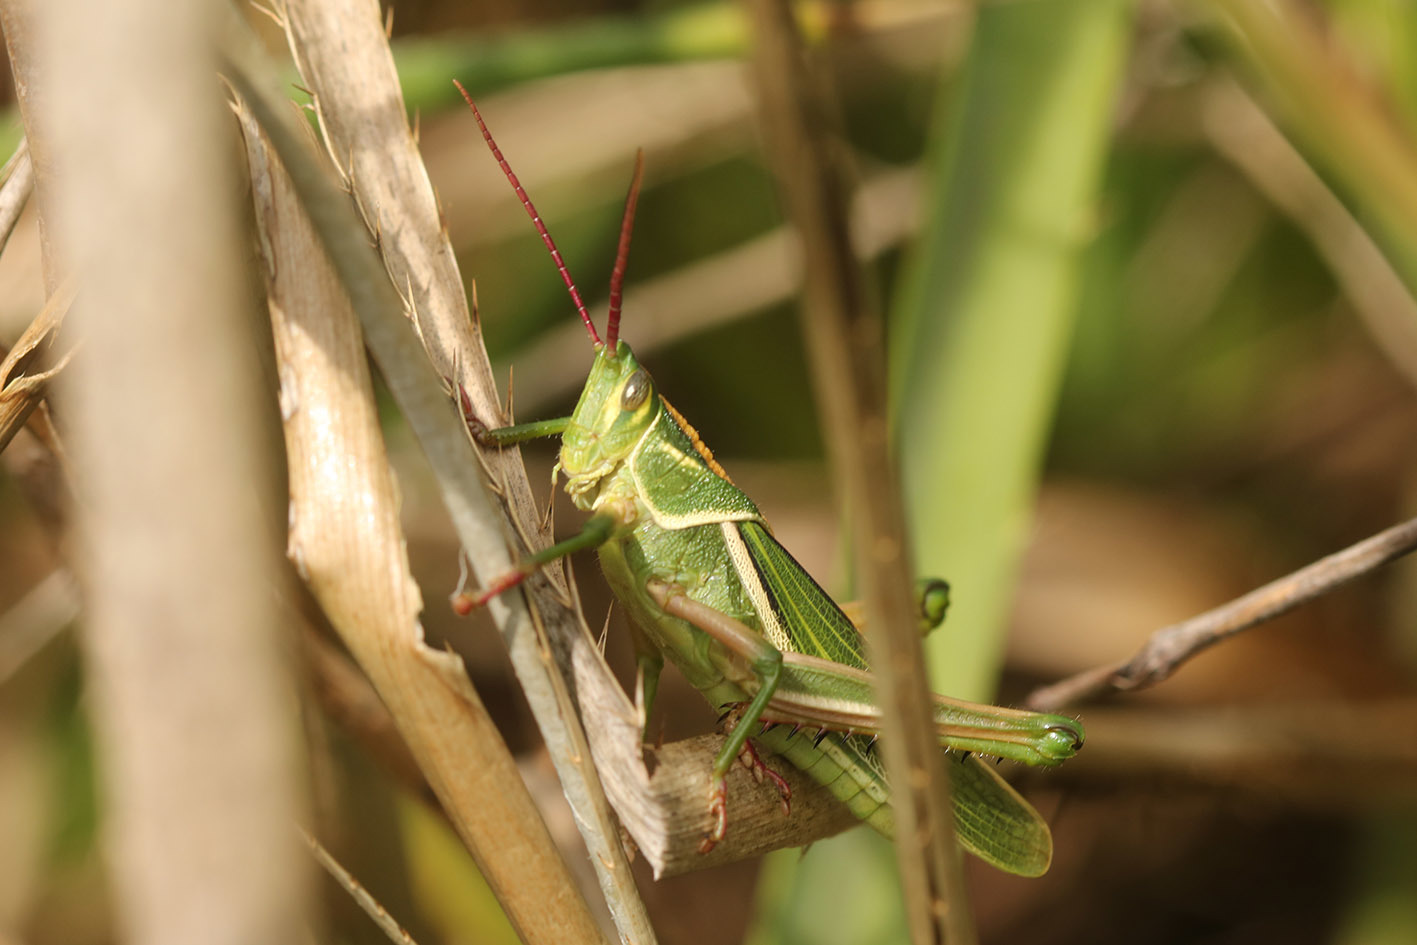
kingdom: Animalia
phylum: Arthropoda
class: Insecta
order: Orthoptera
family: Romaleidae
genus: Staleochlora
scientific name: Staleochlora viridicata
